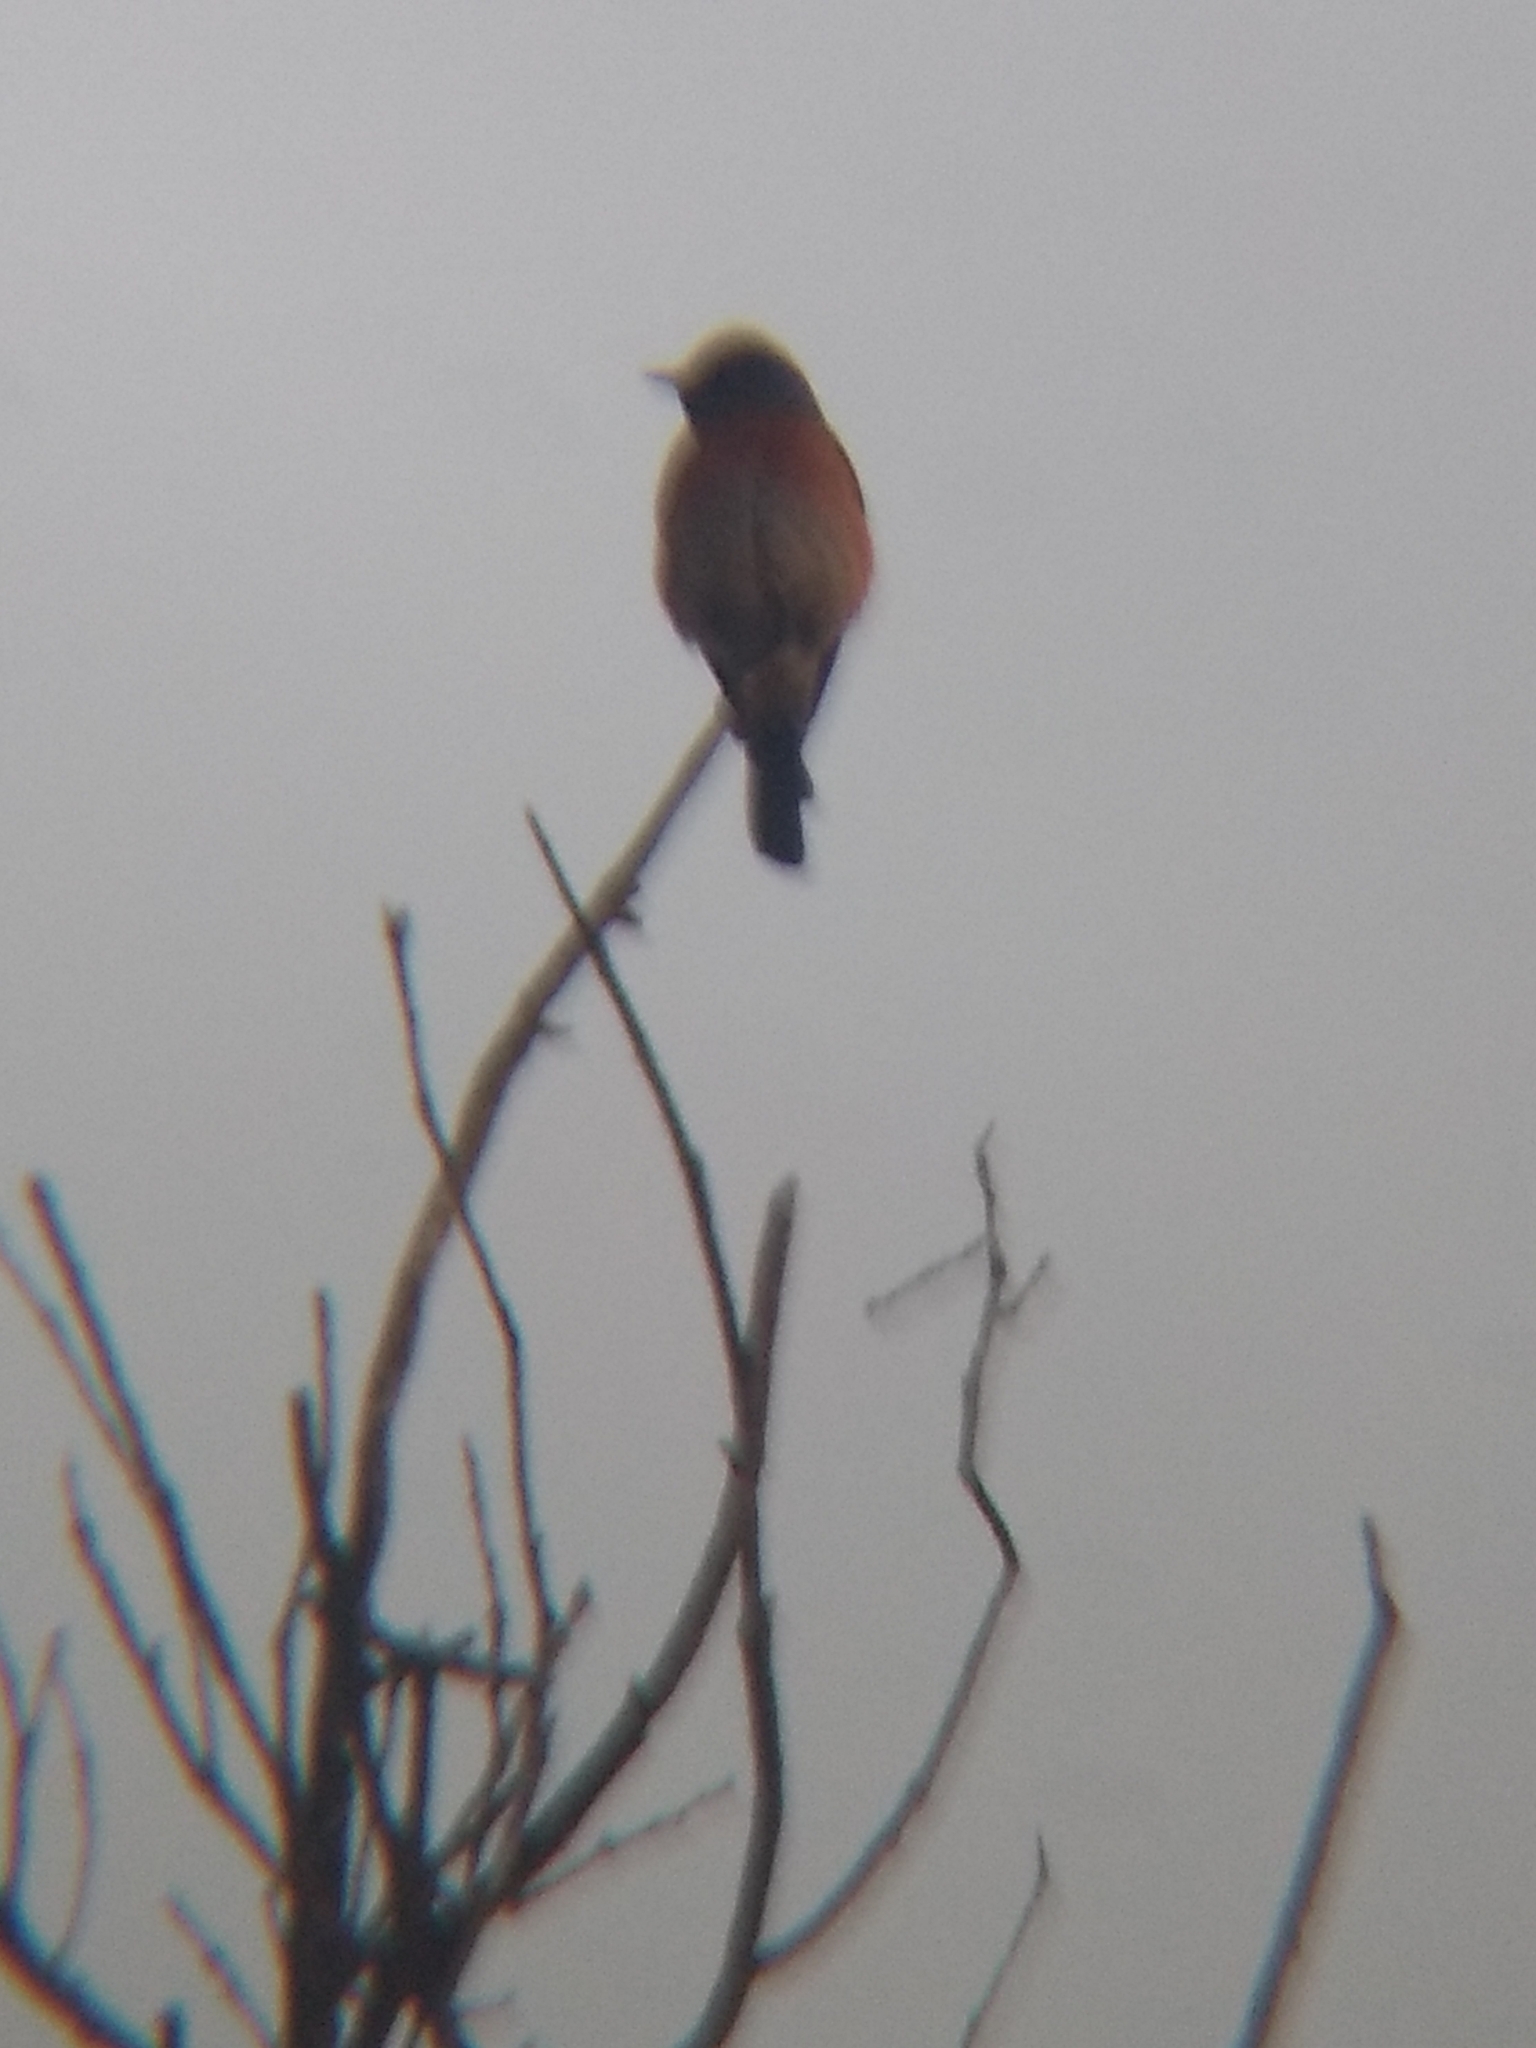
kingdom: Animalia
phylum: Chordata
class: Aves
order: Passeriformes
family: Turdidae
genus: Sialia
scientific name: Sialia mexicana
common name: Western bluebird
